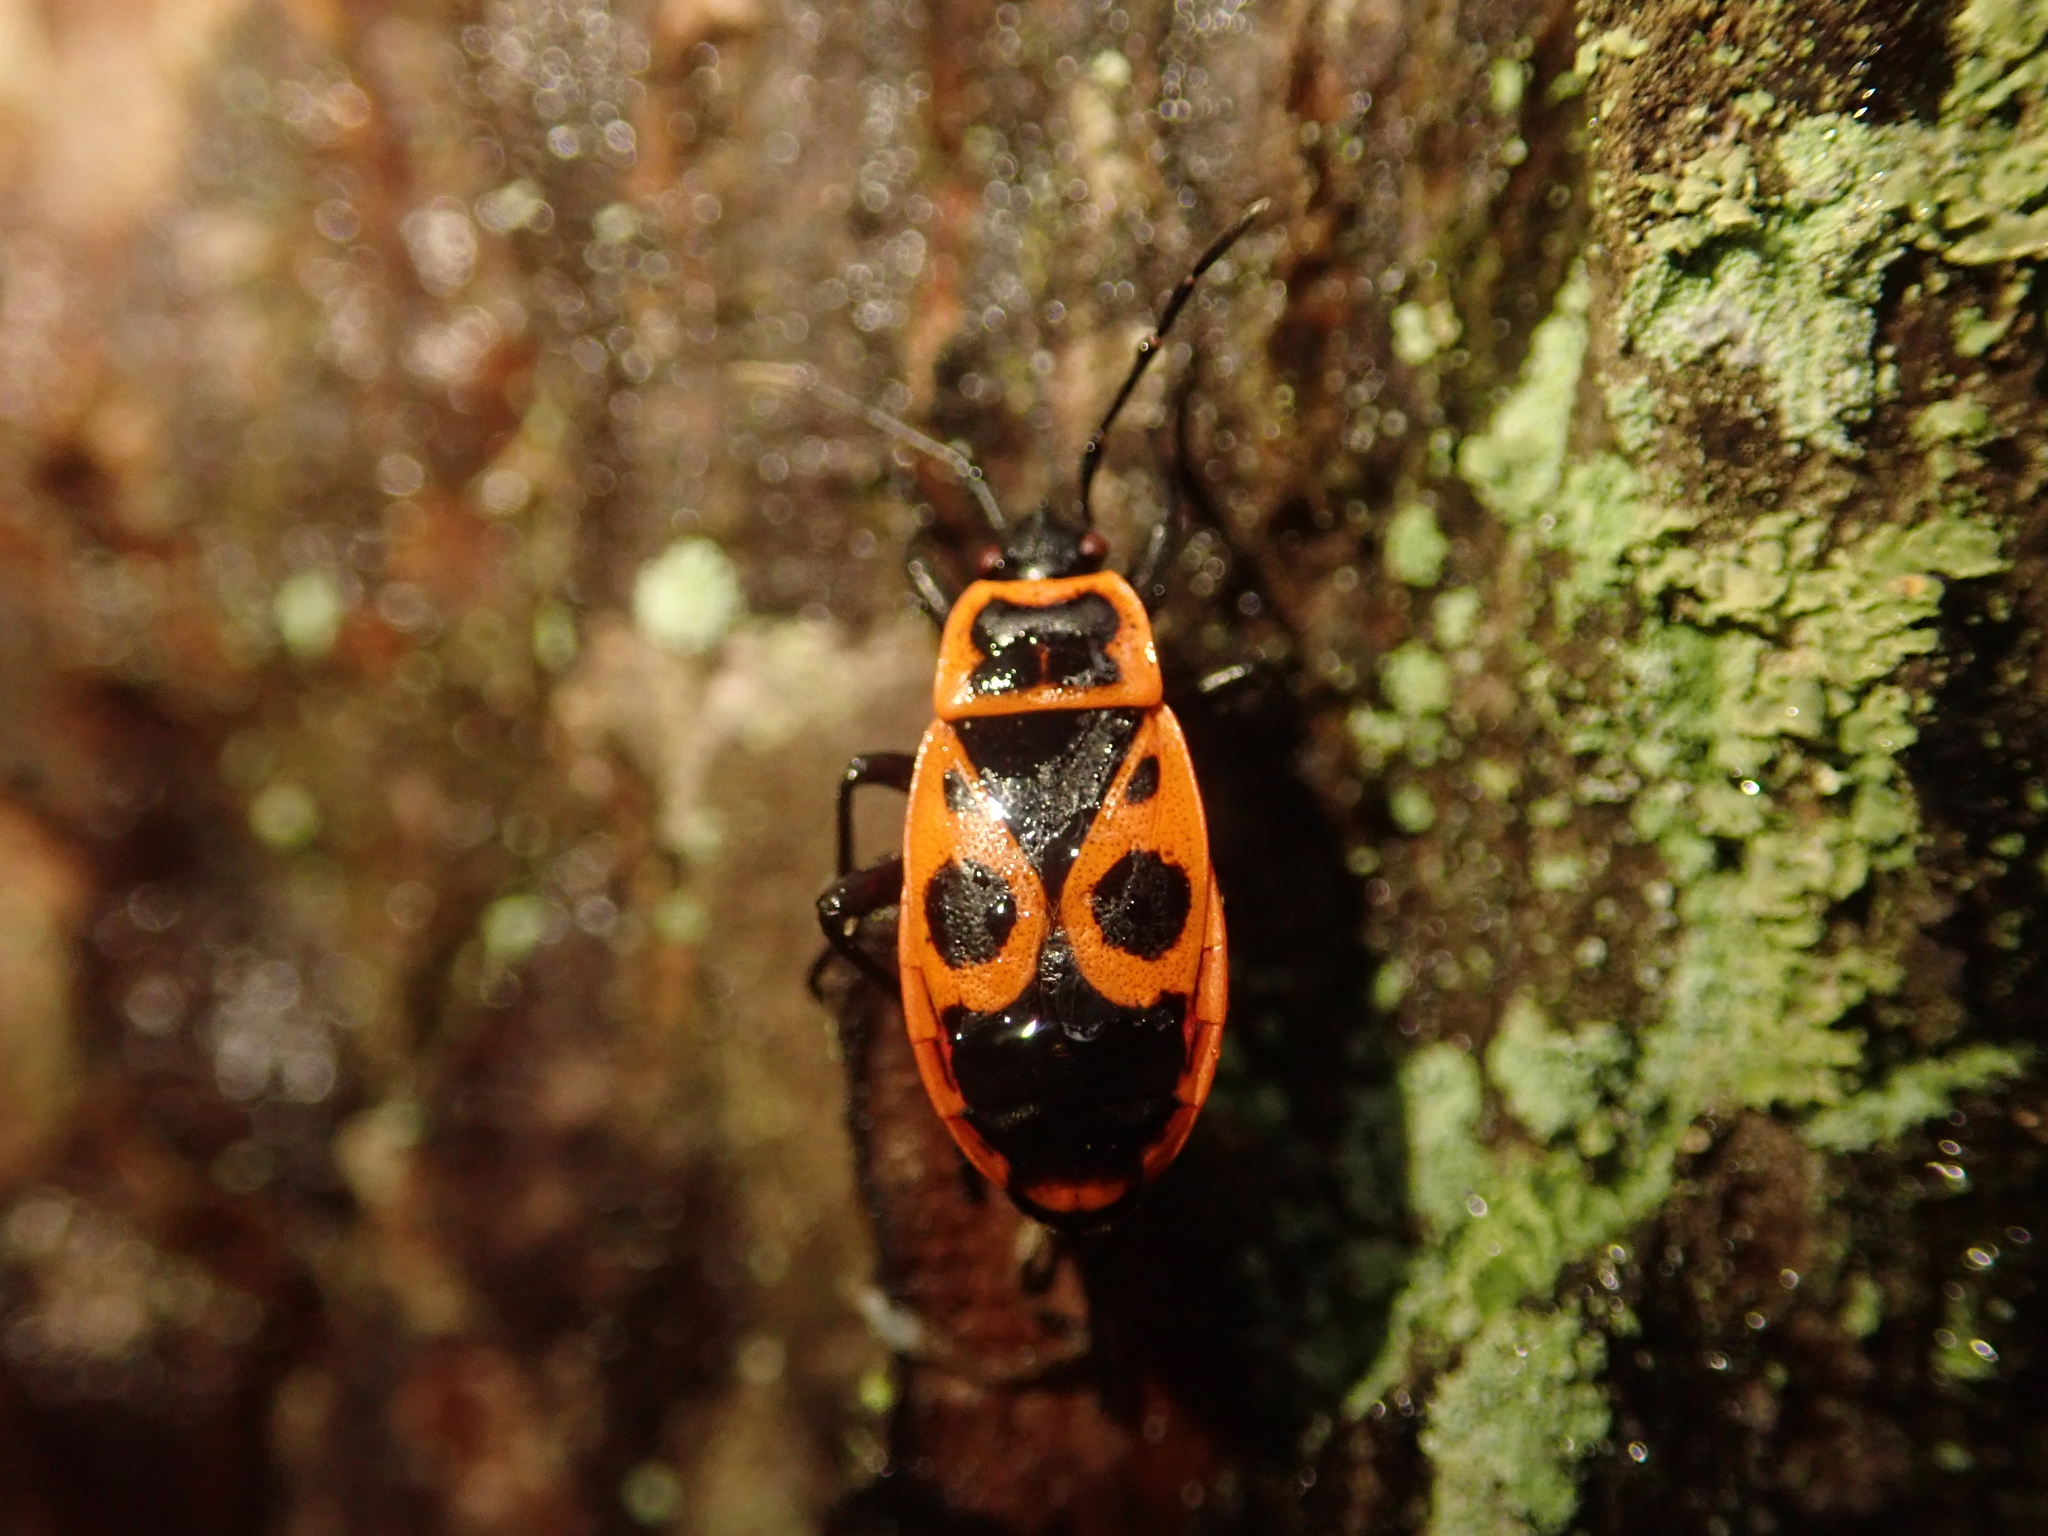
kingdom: Animalia
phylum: Arthropoda
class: Insecta
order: Hemiptera
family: Pyrrhocoridae
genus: Pyrrhocoris
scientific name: Pyrrhocoris apterus
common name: Firebug
